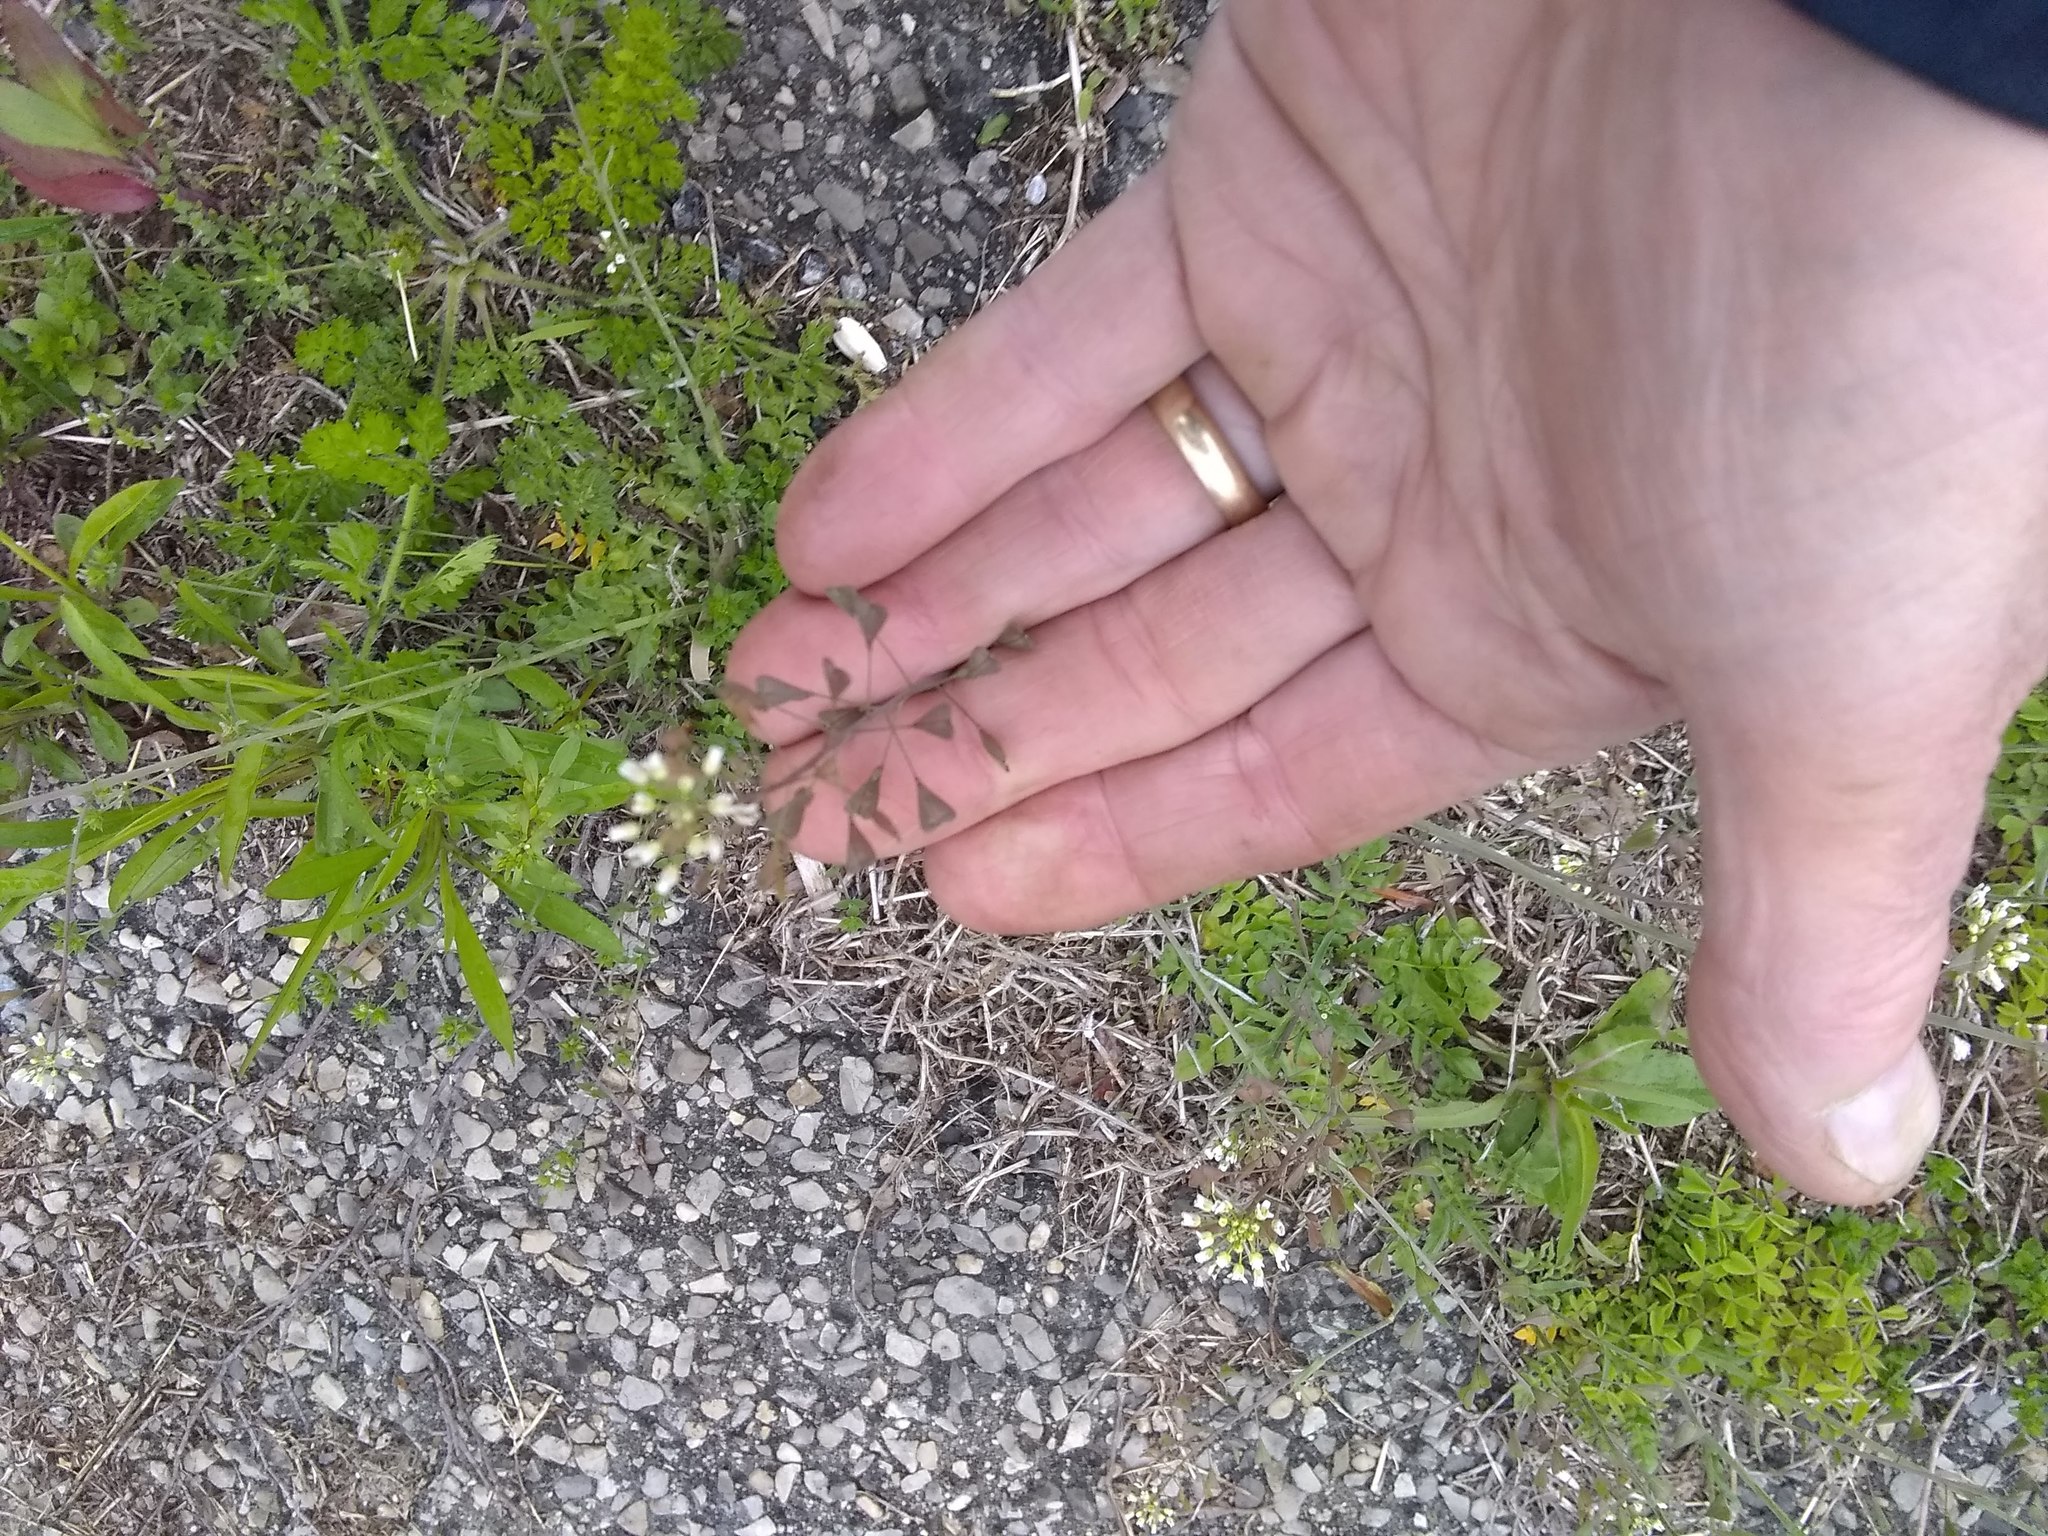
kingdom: Plantae
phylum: Tracheophyta
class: Magnoliopsida
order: Brassicales
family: Brassicaceae
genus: Capsella
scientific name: Capsella bursa-pastoris
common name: Shepherd's purse
